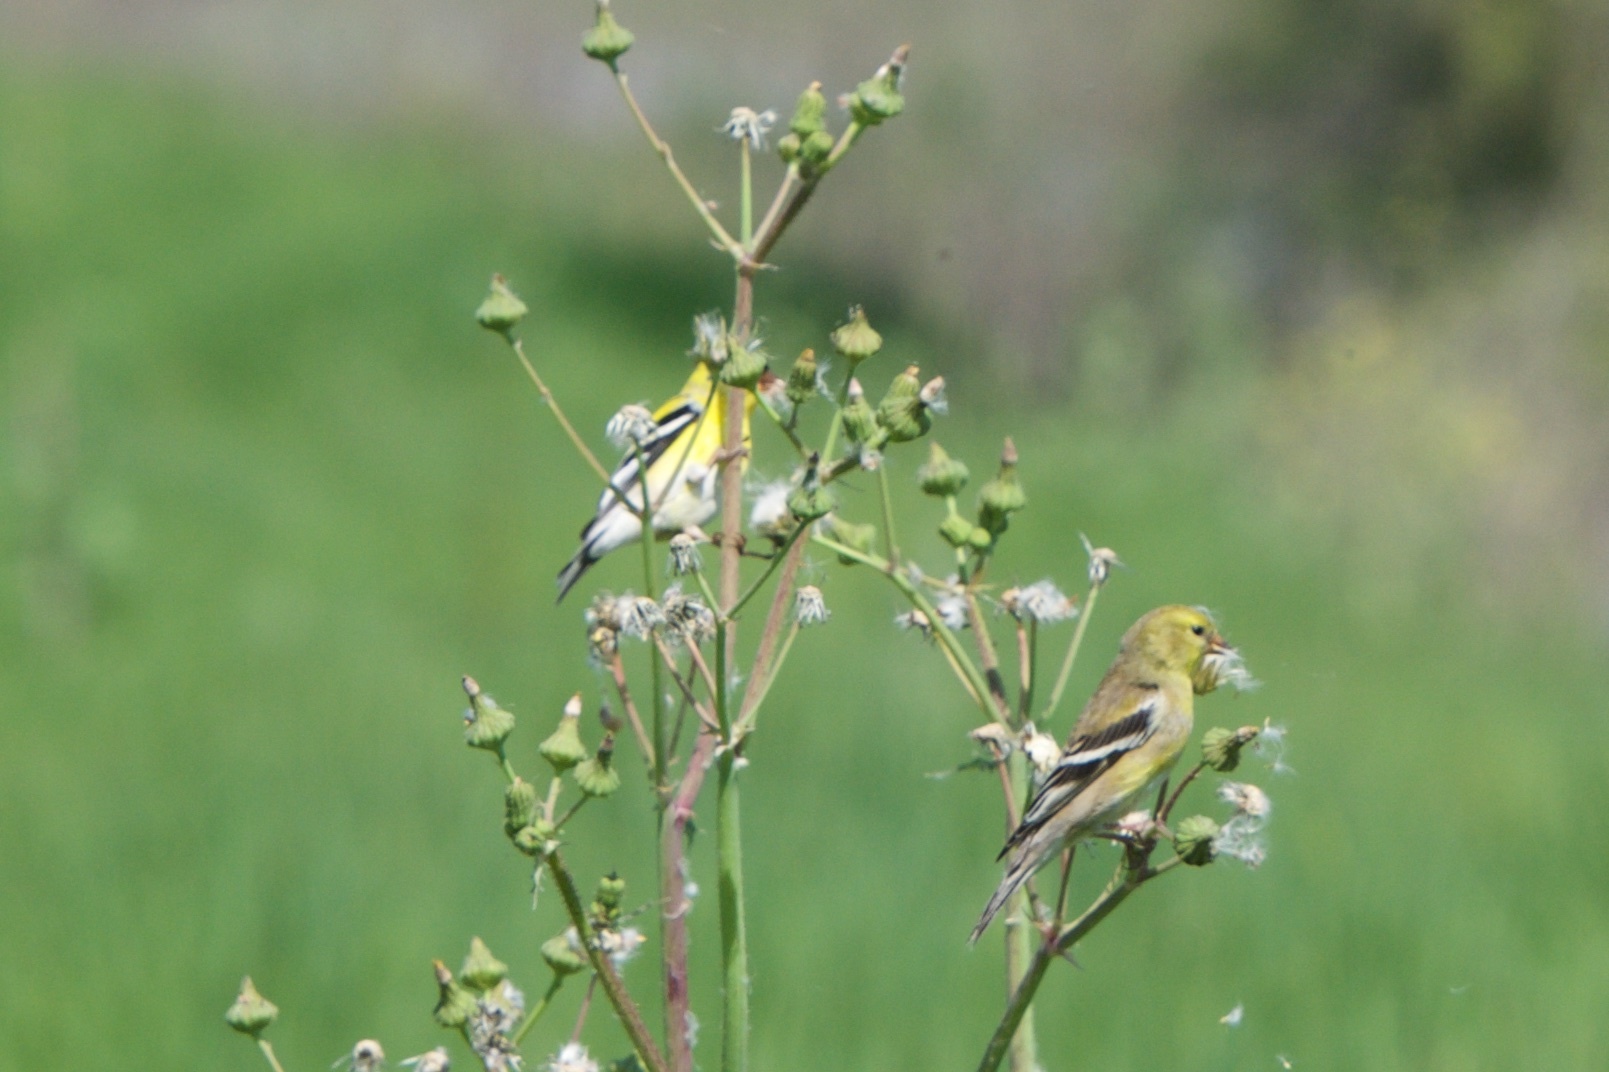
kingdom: Animalia
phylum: Chordata
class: Aves
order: Passeriformes
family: Fringillidae
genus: Spinus
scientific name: Spinus tristis
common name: American goldfinch
